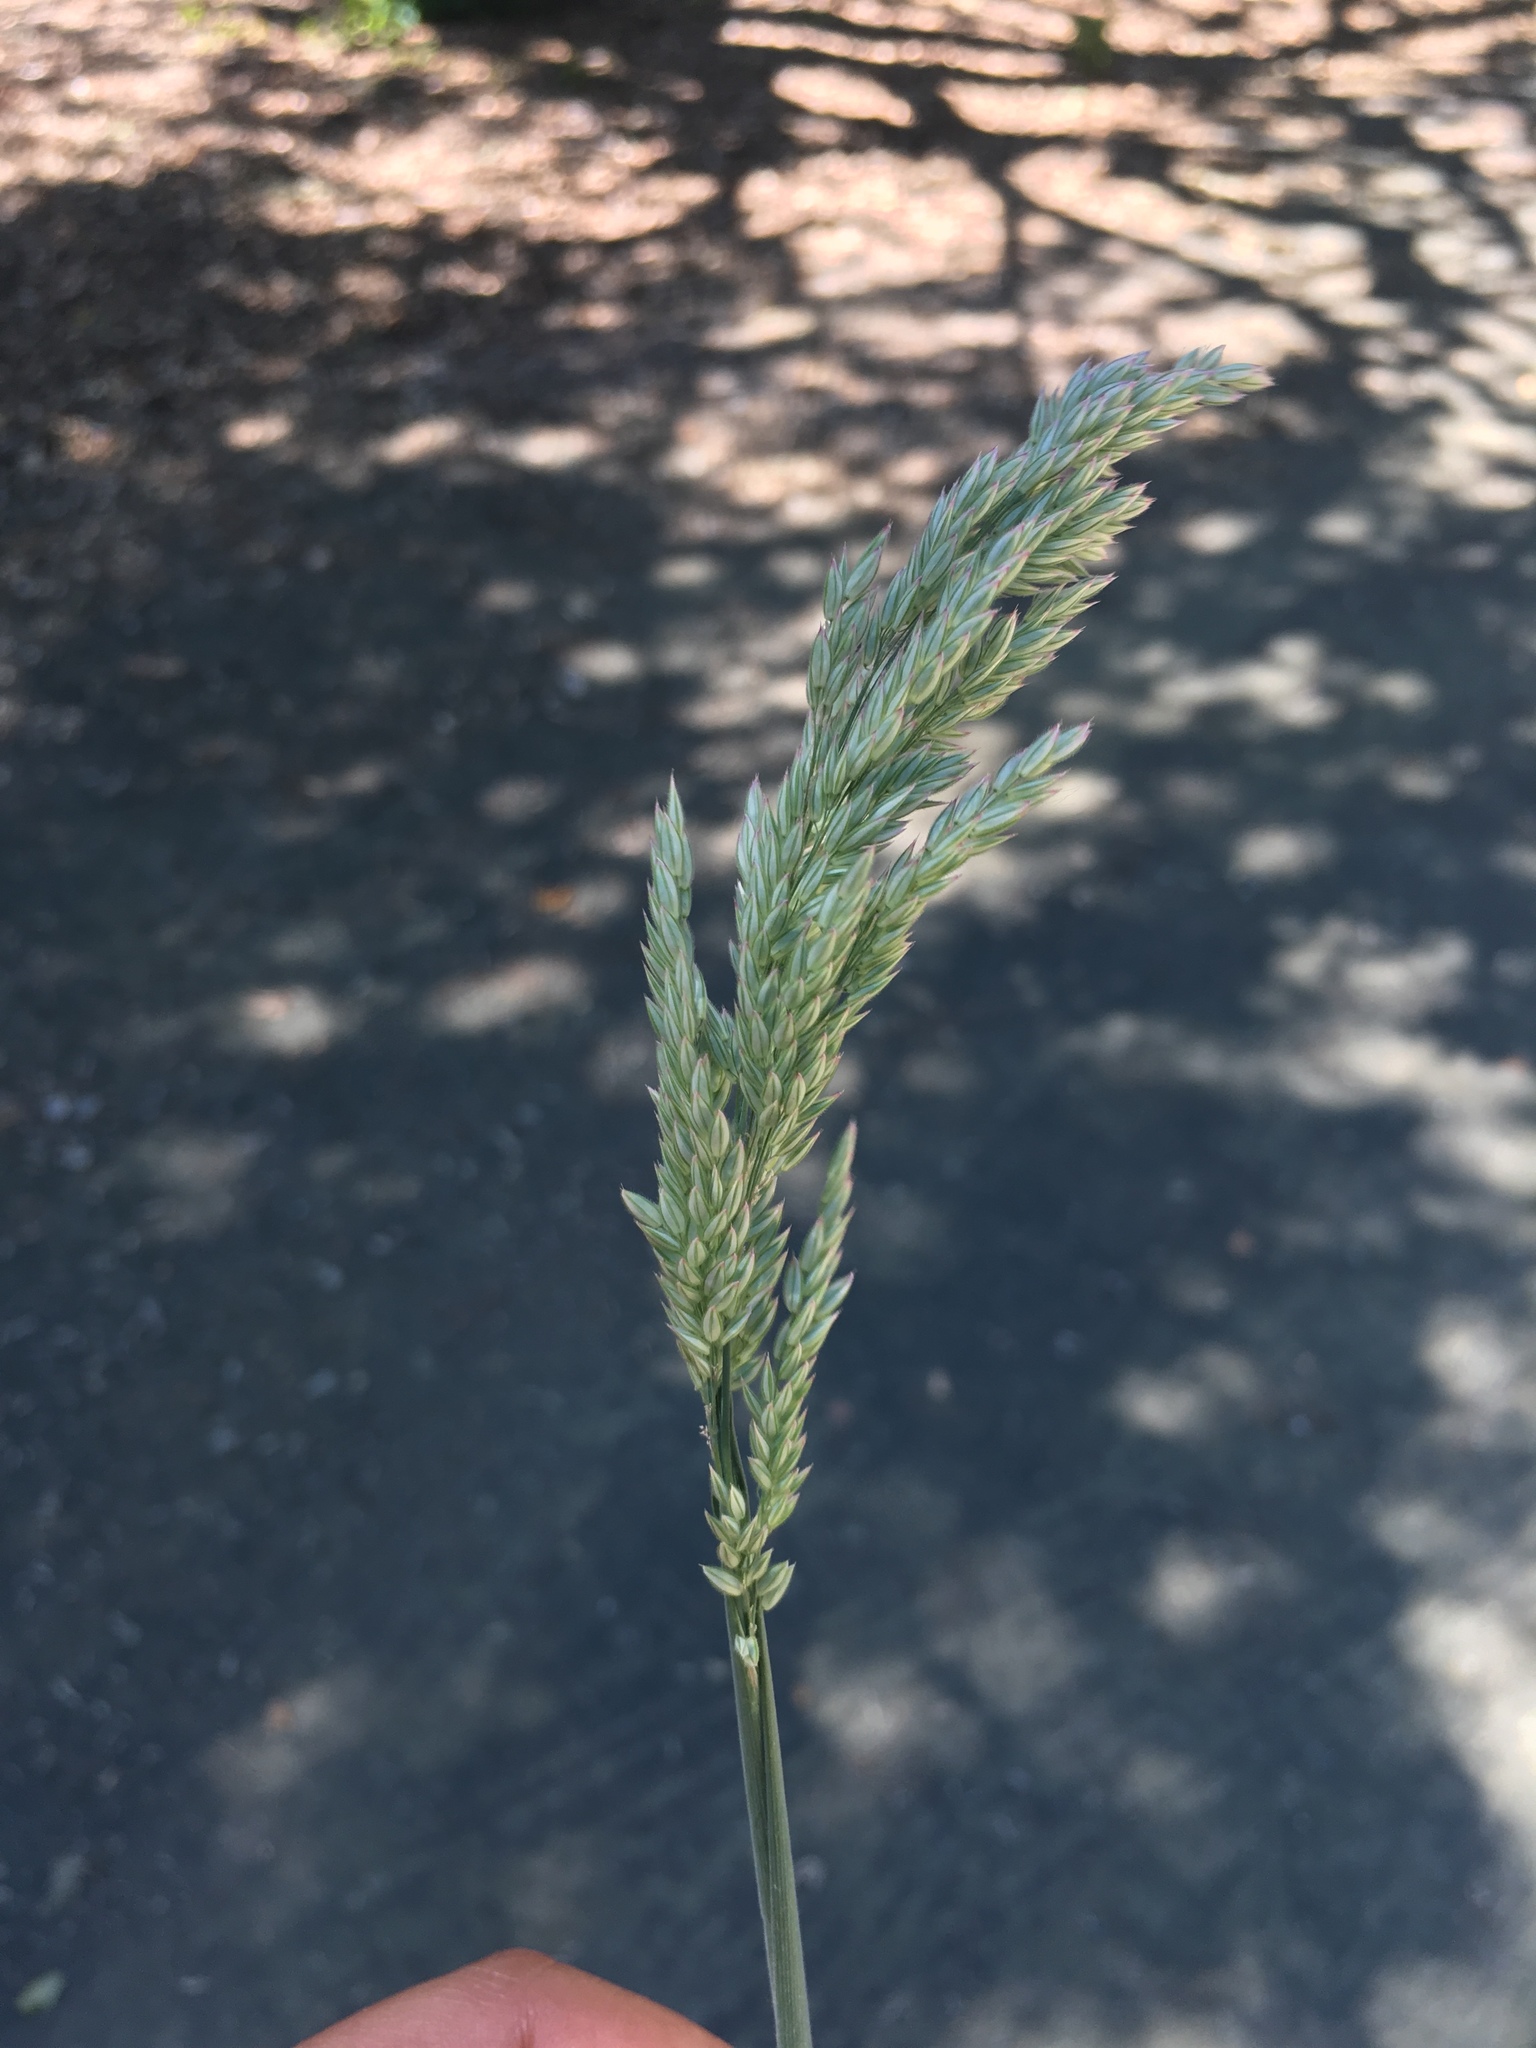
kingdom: Plantae
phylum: Tracheophyta
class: Liliopsida
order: Poales
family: Poaceae
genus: Holcus
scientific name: Holcus lanatus
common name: Yorkshire-fog
